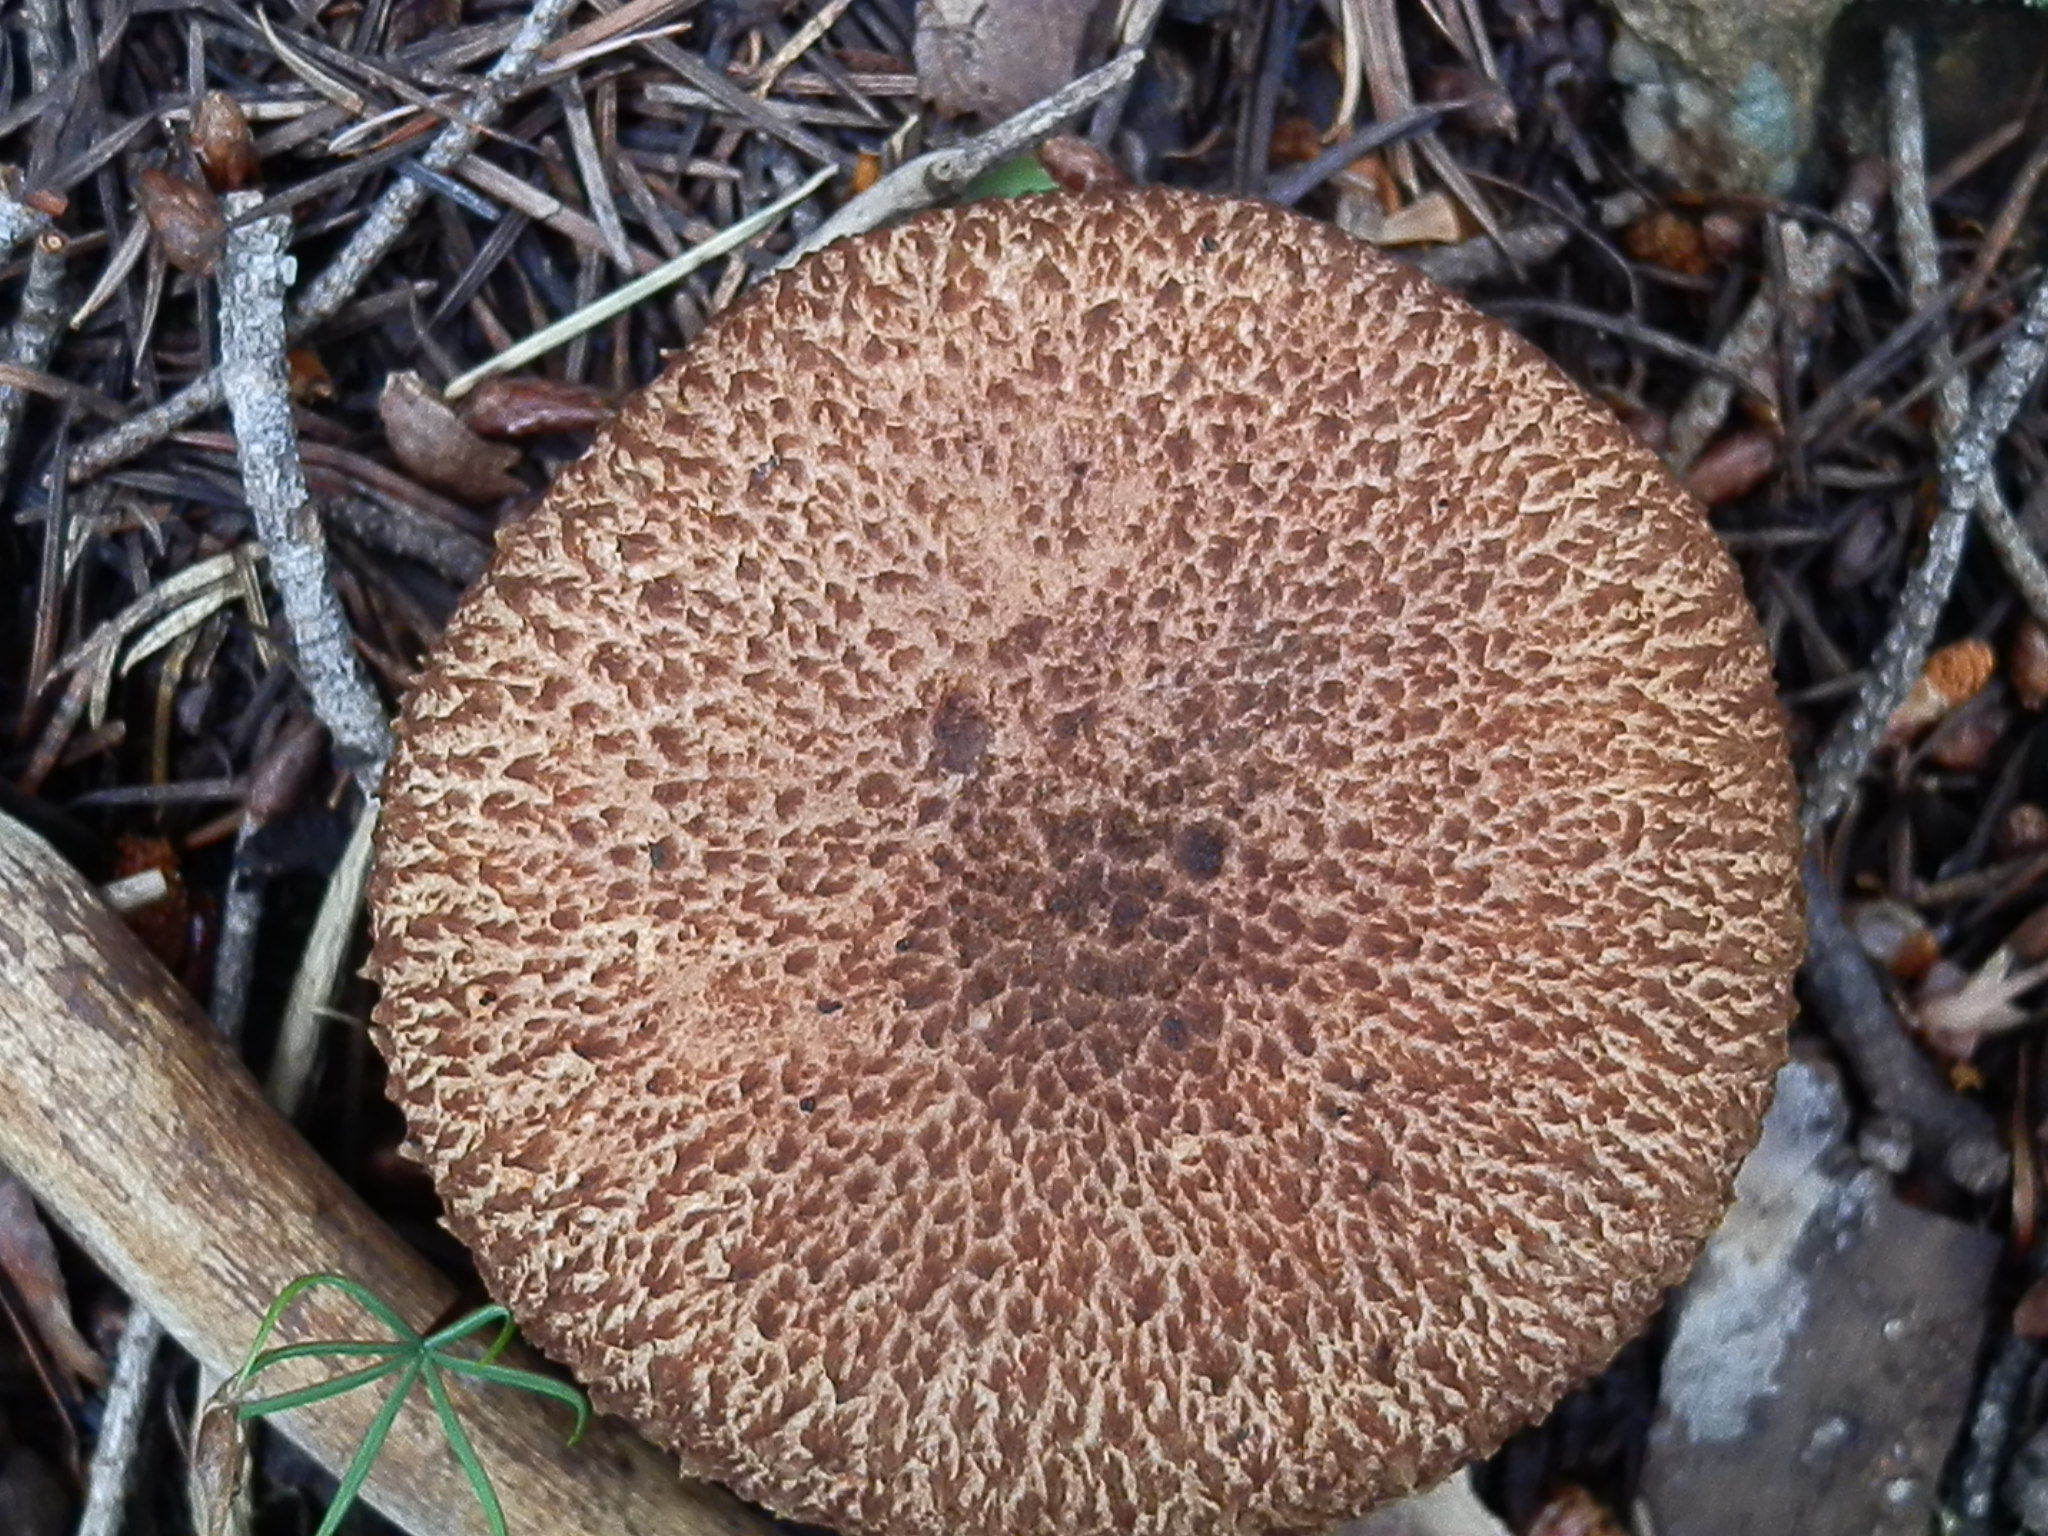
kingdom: Fungi
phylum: Basidiomycota
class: Agaricomycetes
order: Boletales
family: Suillaceae
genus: Suillus
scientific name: Suillus lakei
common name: Western painted suillus
